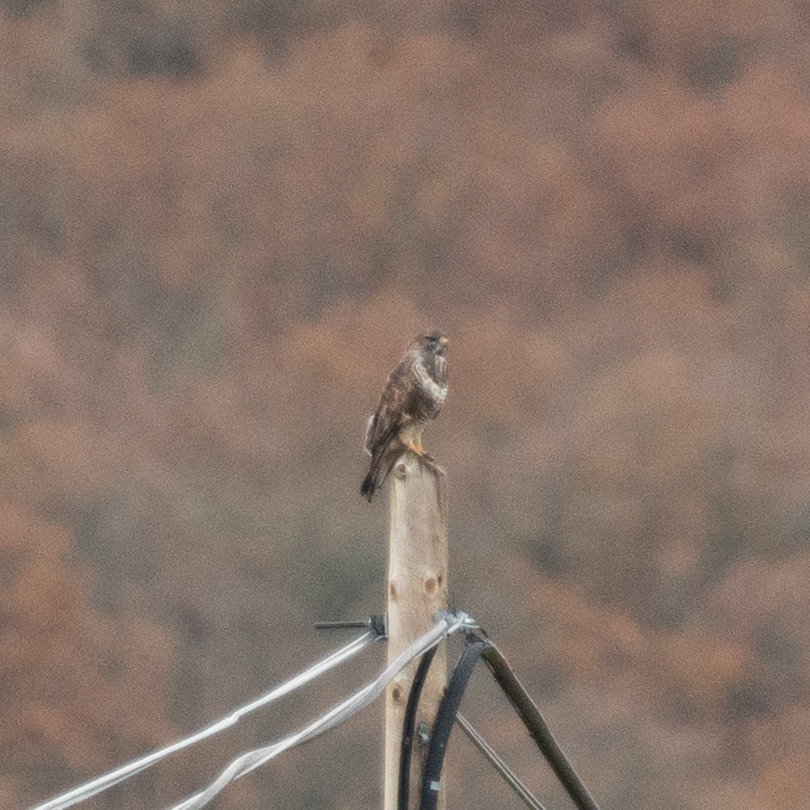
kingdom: Animalia
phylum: Chordata
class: Aves
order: Accipitriformes
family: Accipitridae
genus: Buteo
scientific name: Buteo buteo
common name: Common buzzard
